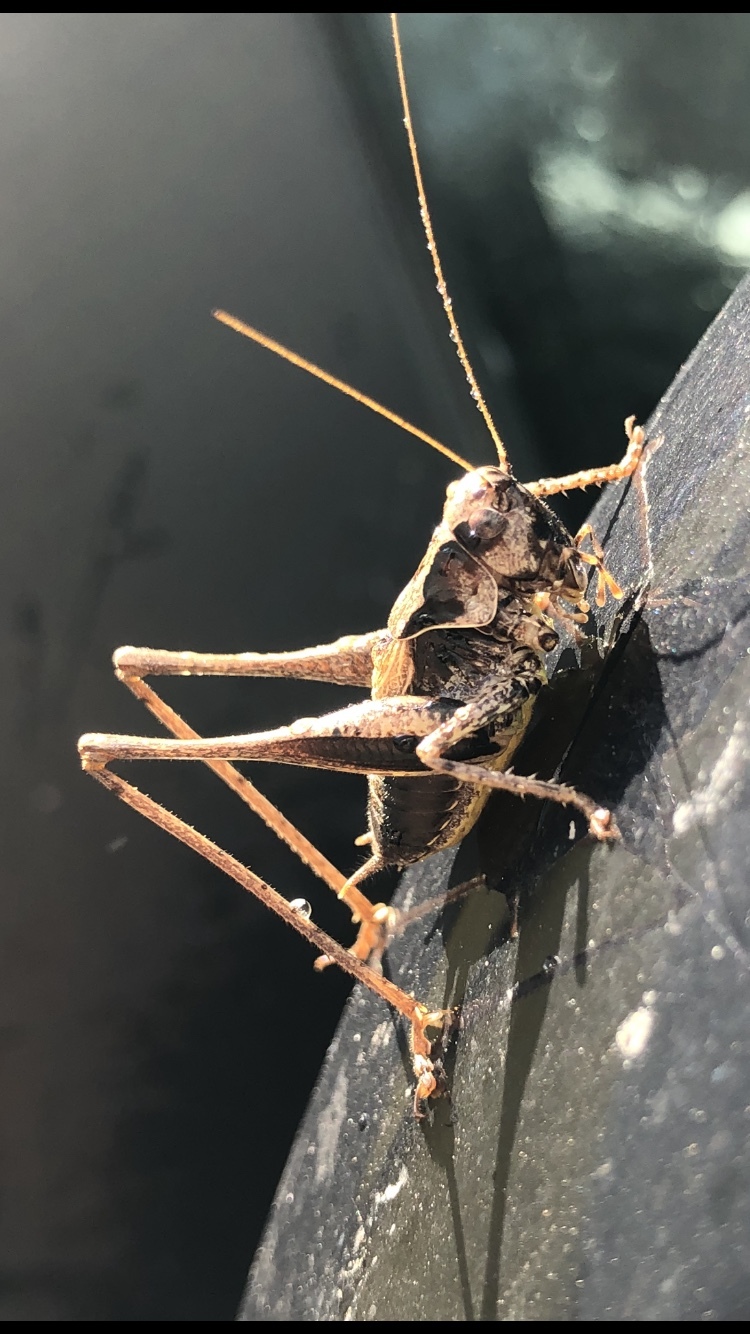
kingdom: Animalia
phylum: Arthropoda
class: Insecta
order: Orthoptera
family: Tettigoniidae
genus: Pholidoptera
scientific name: Pholidoptera griseoaptera
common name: Dark bush-cricket
